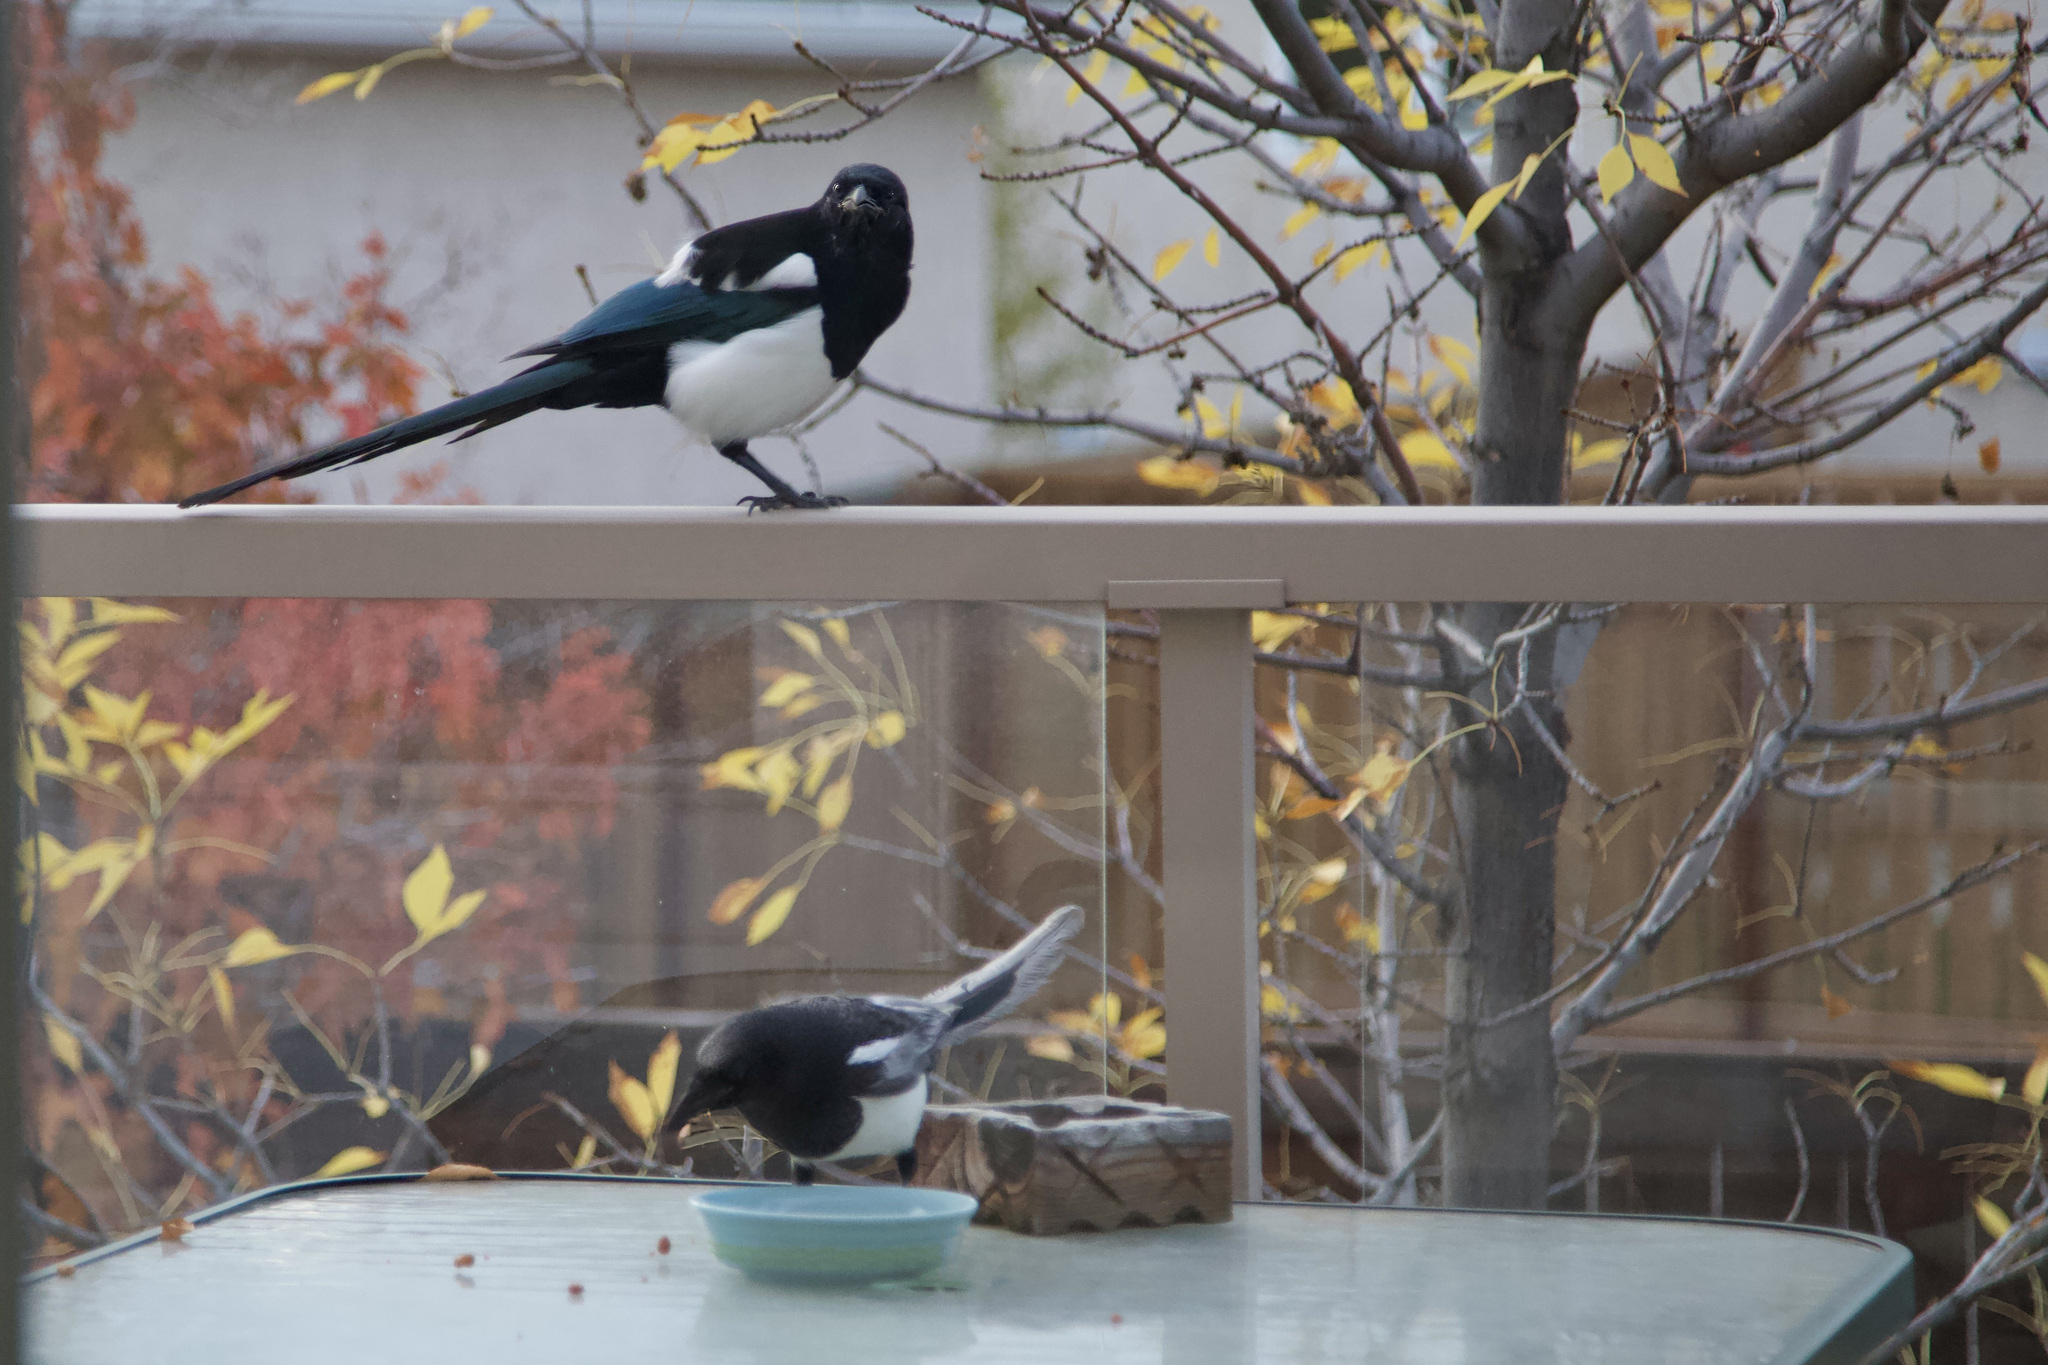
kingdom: Animalia
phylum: Chordata
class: Aves
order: Passeriformes
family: Corvidae
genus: Pica
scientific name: Pica hudsonia
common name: Black-billed magpie
